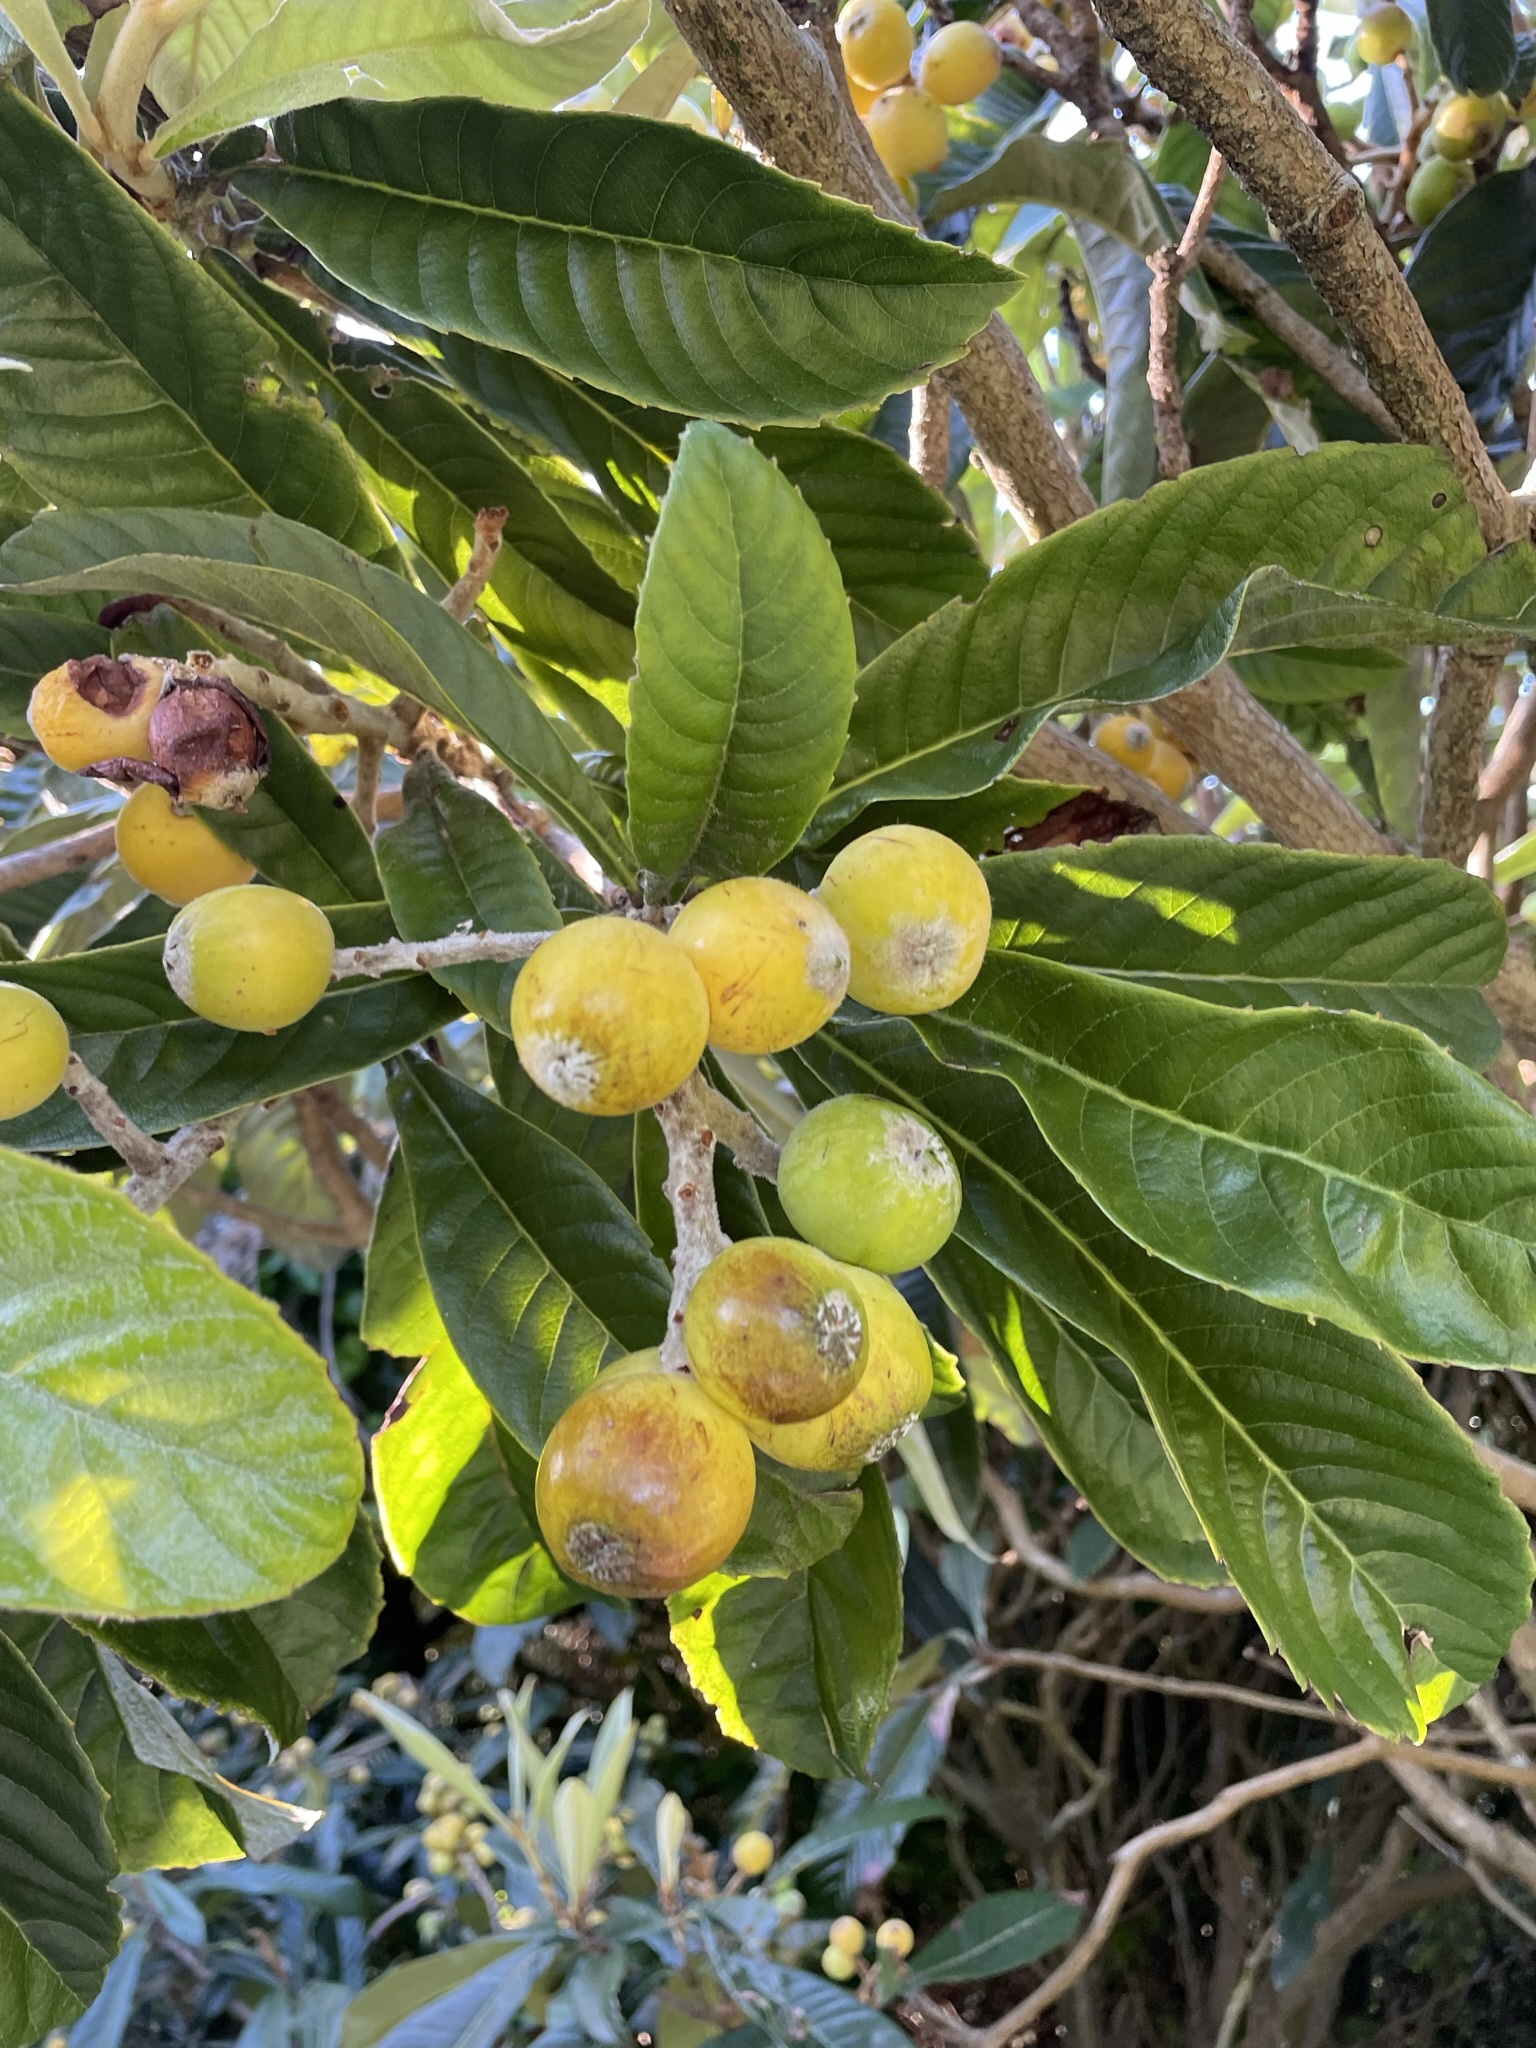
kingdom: Plantae
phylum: Tracheophyta
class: Magnoliopsida
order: Rosales
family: Rosaceae
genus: Rhaphiolepis
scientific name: Rhaphiolepis bibas
